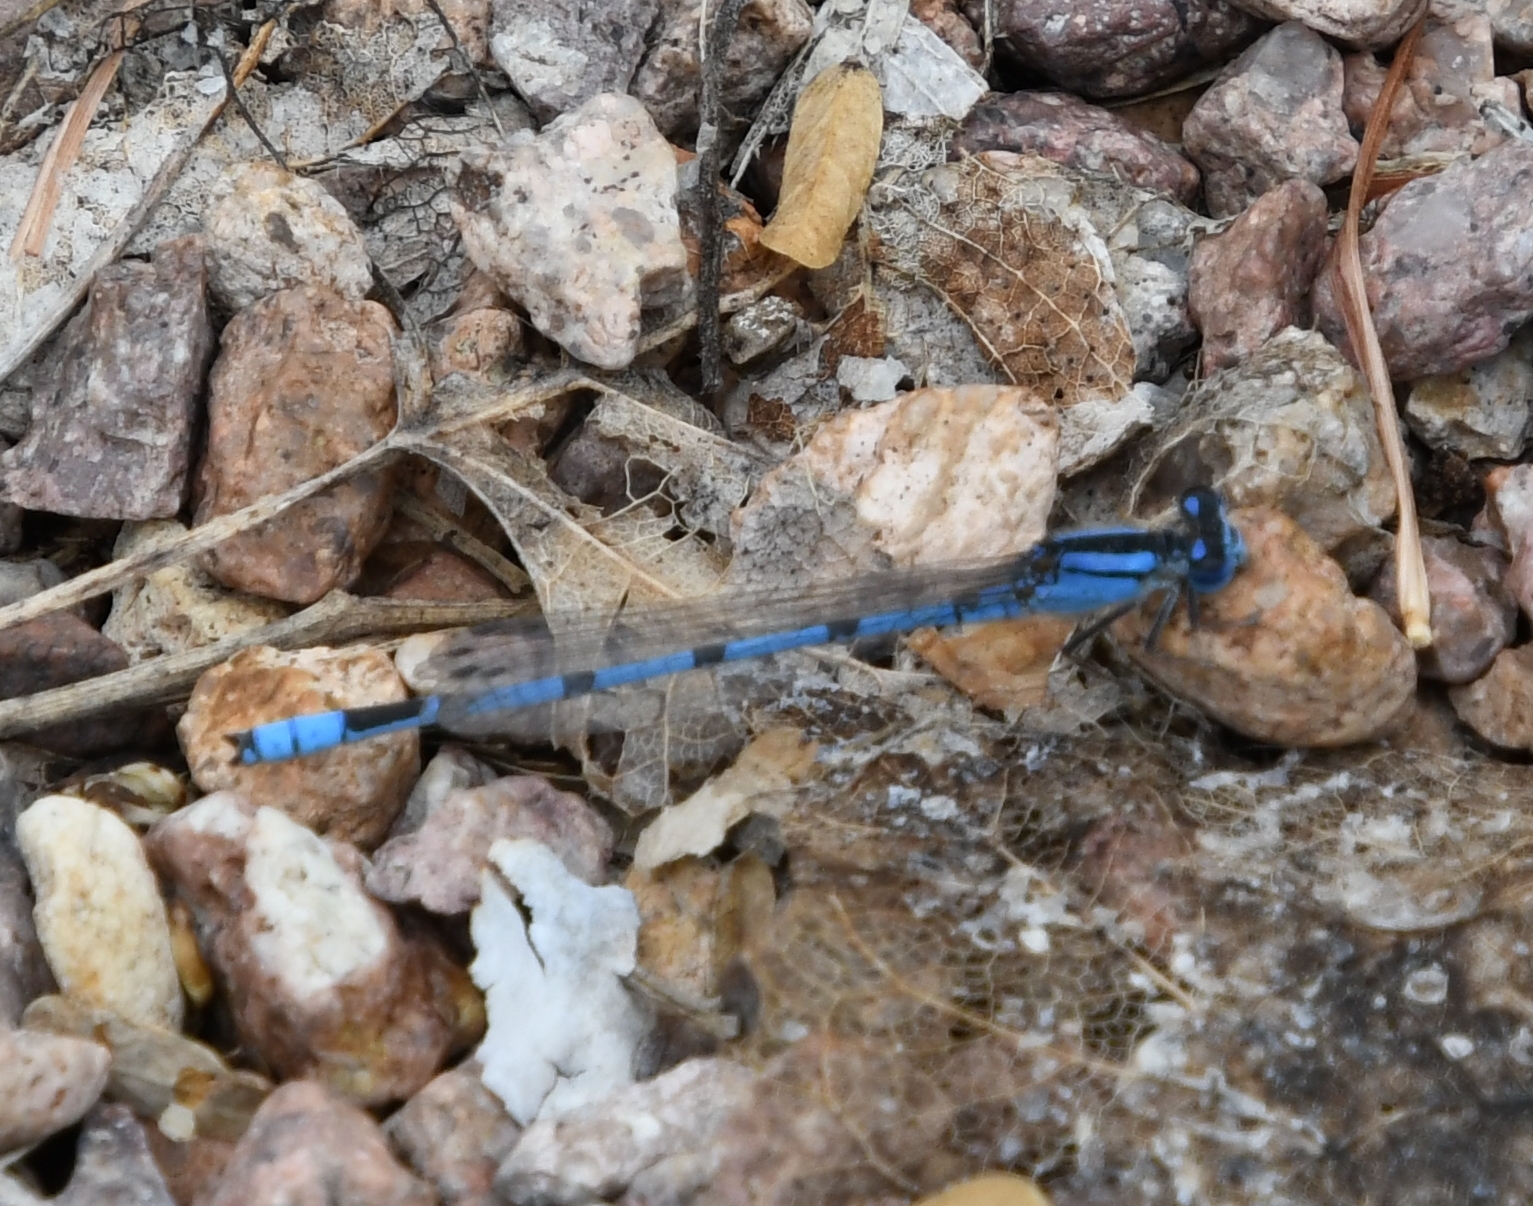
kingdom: Animalia
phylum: Arthropoda
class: Insecta
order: Odonata
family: Coenagrionidae
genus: Enallagma
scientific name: Enallagma civile
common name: Damselfly
